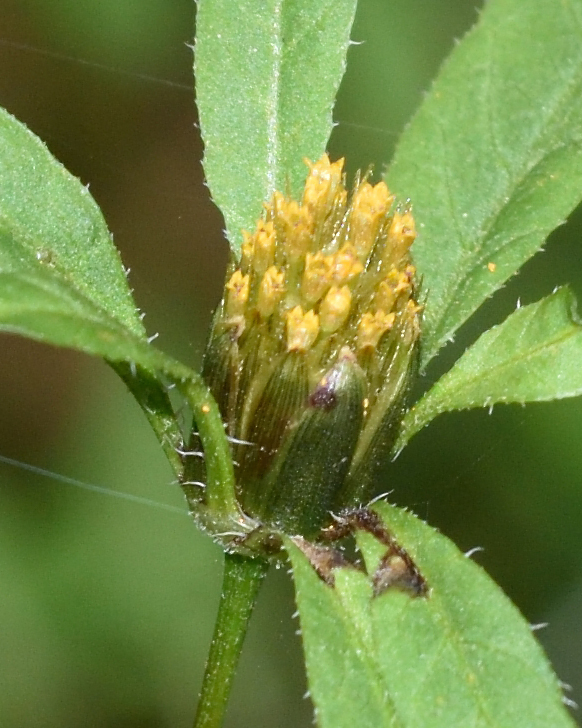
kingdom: Plantae
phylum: Tracheophyta
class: Magnoliopsida
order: Asterales
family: Asteraceae
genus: Bidens
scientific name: Bidens frondosa
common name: Beggarticks
